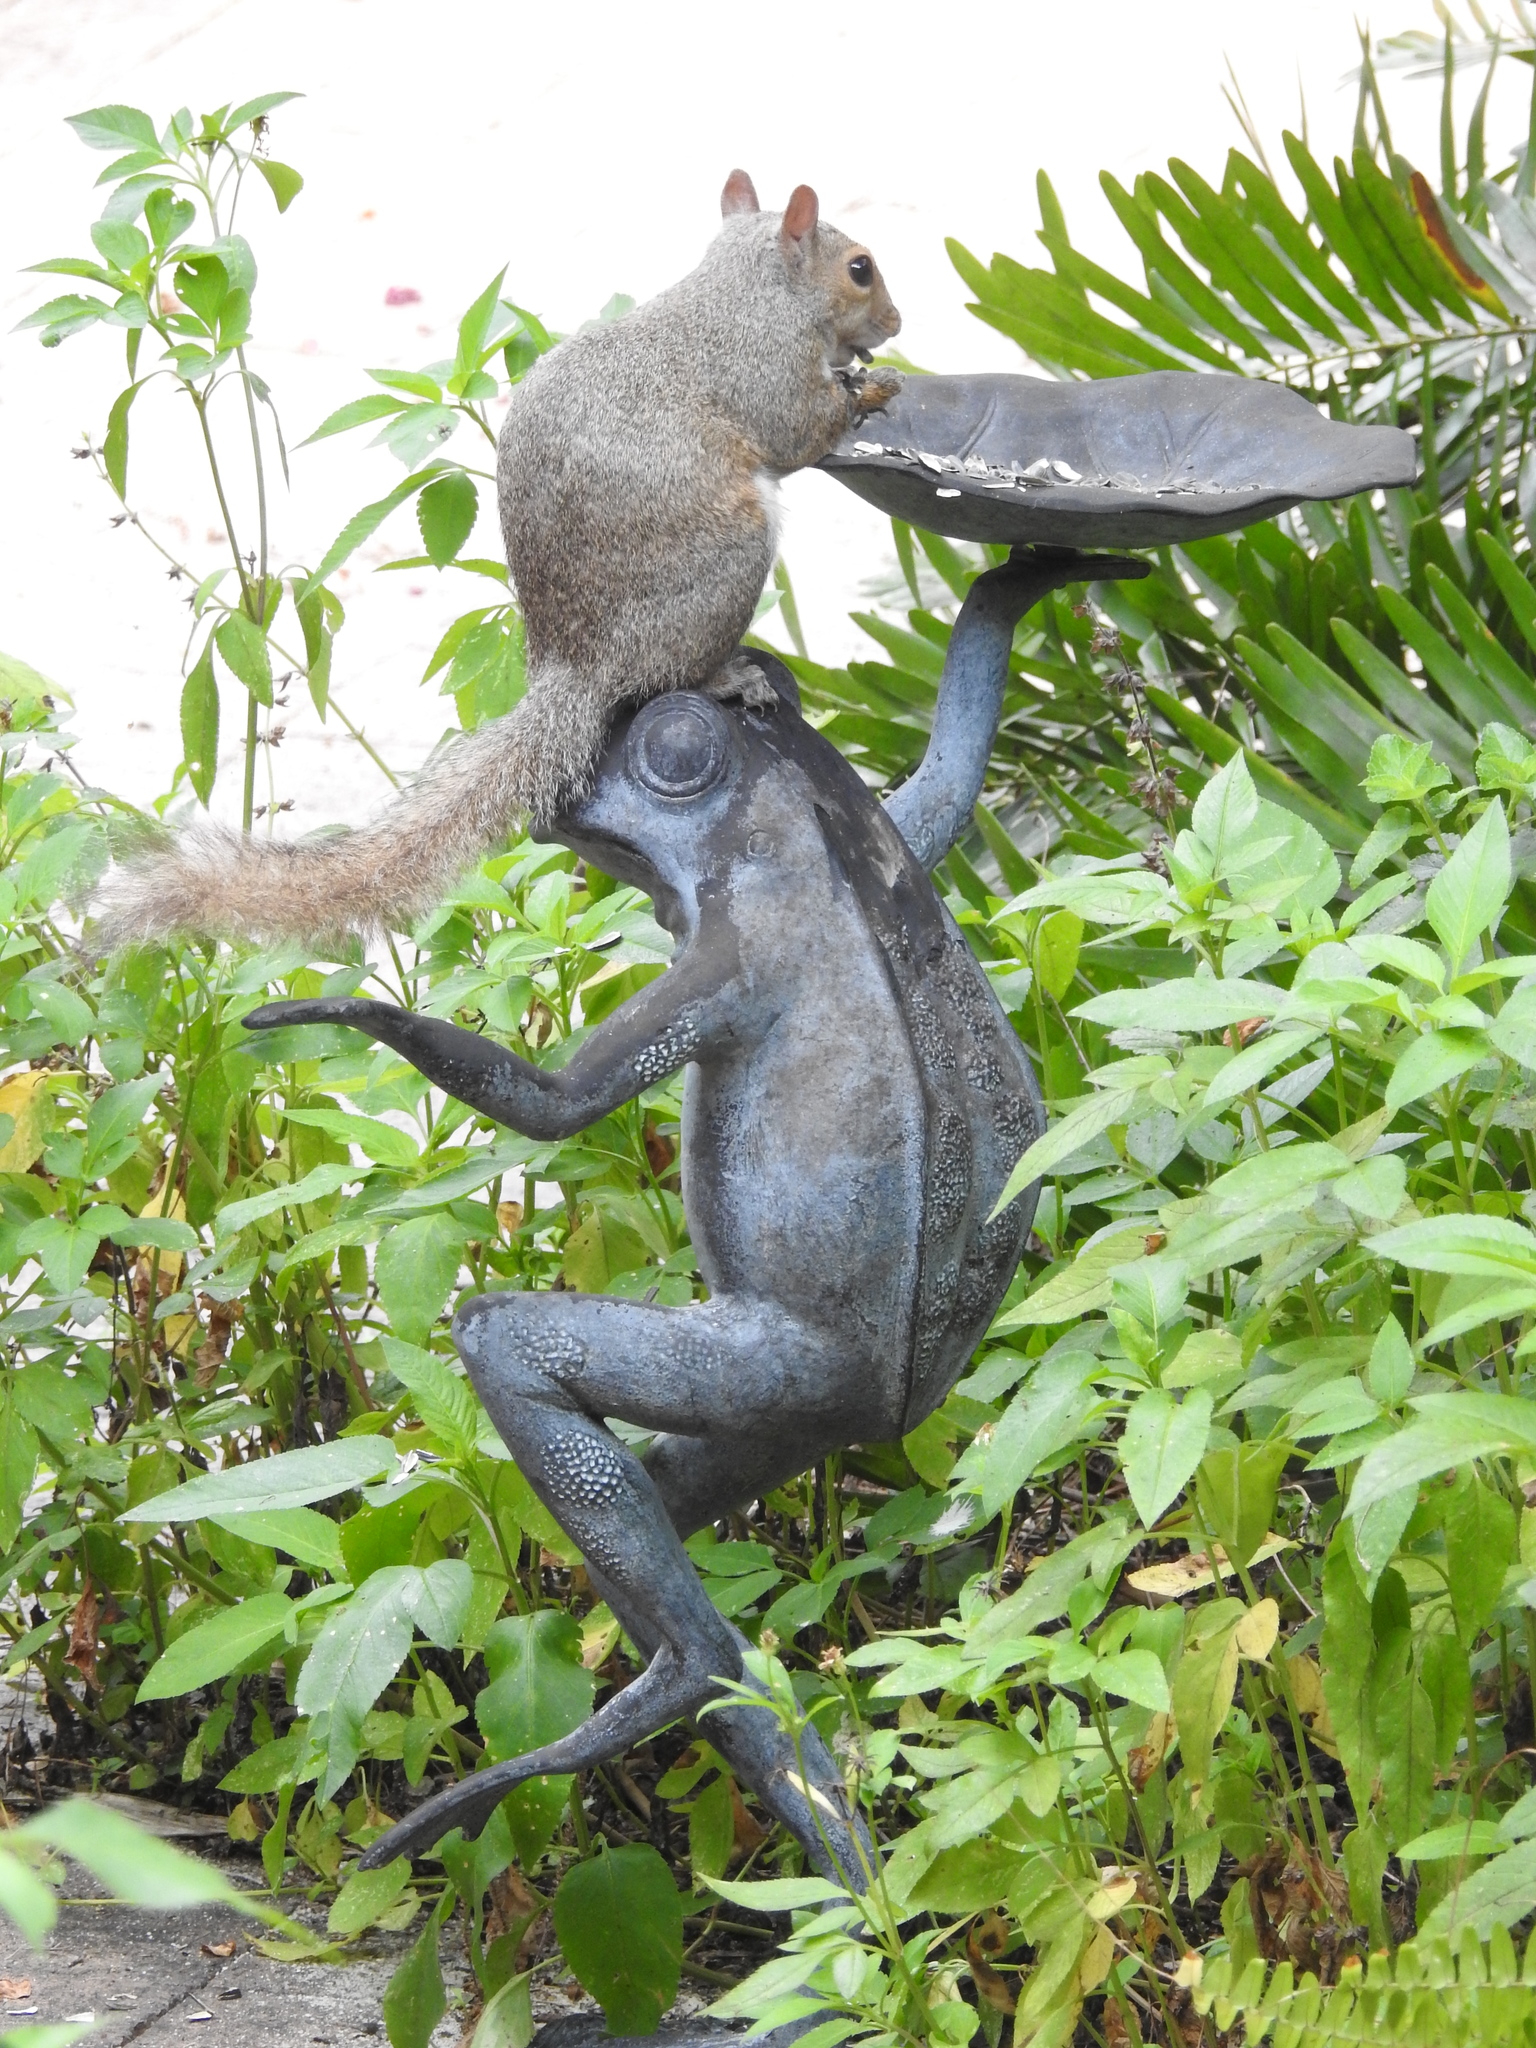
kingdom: Animalia
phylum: Chordata
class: Mammalia
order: Rodentia
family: Sciuridae
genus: Sciurus
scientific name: Sciurus carolinensis
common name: Eastern gray squirrel
